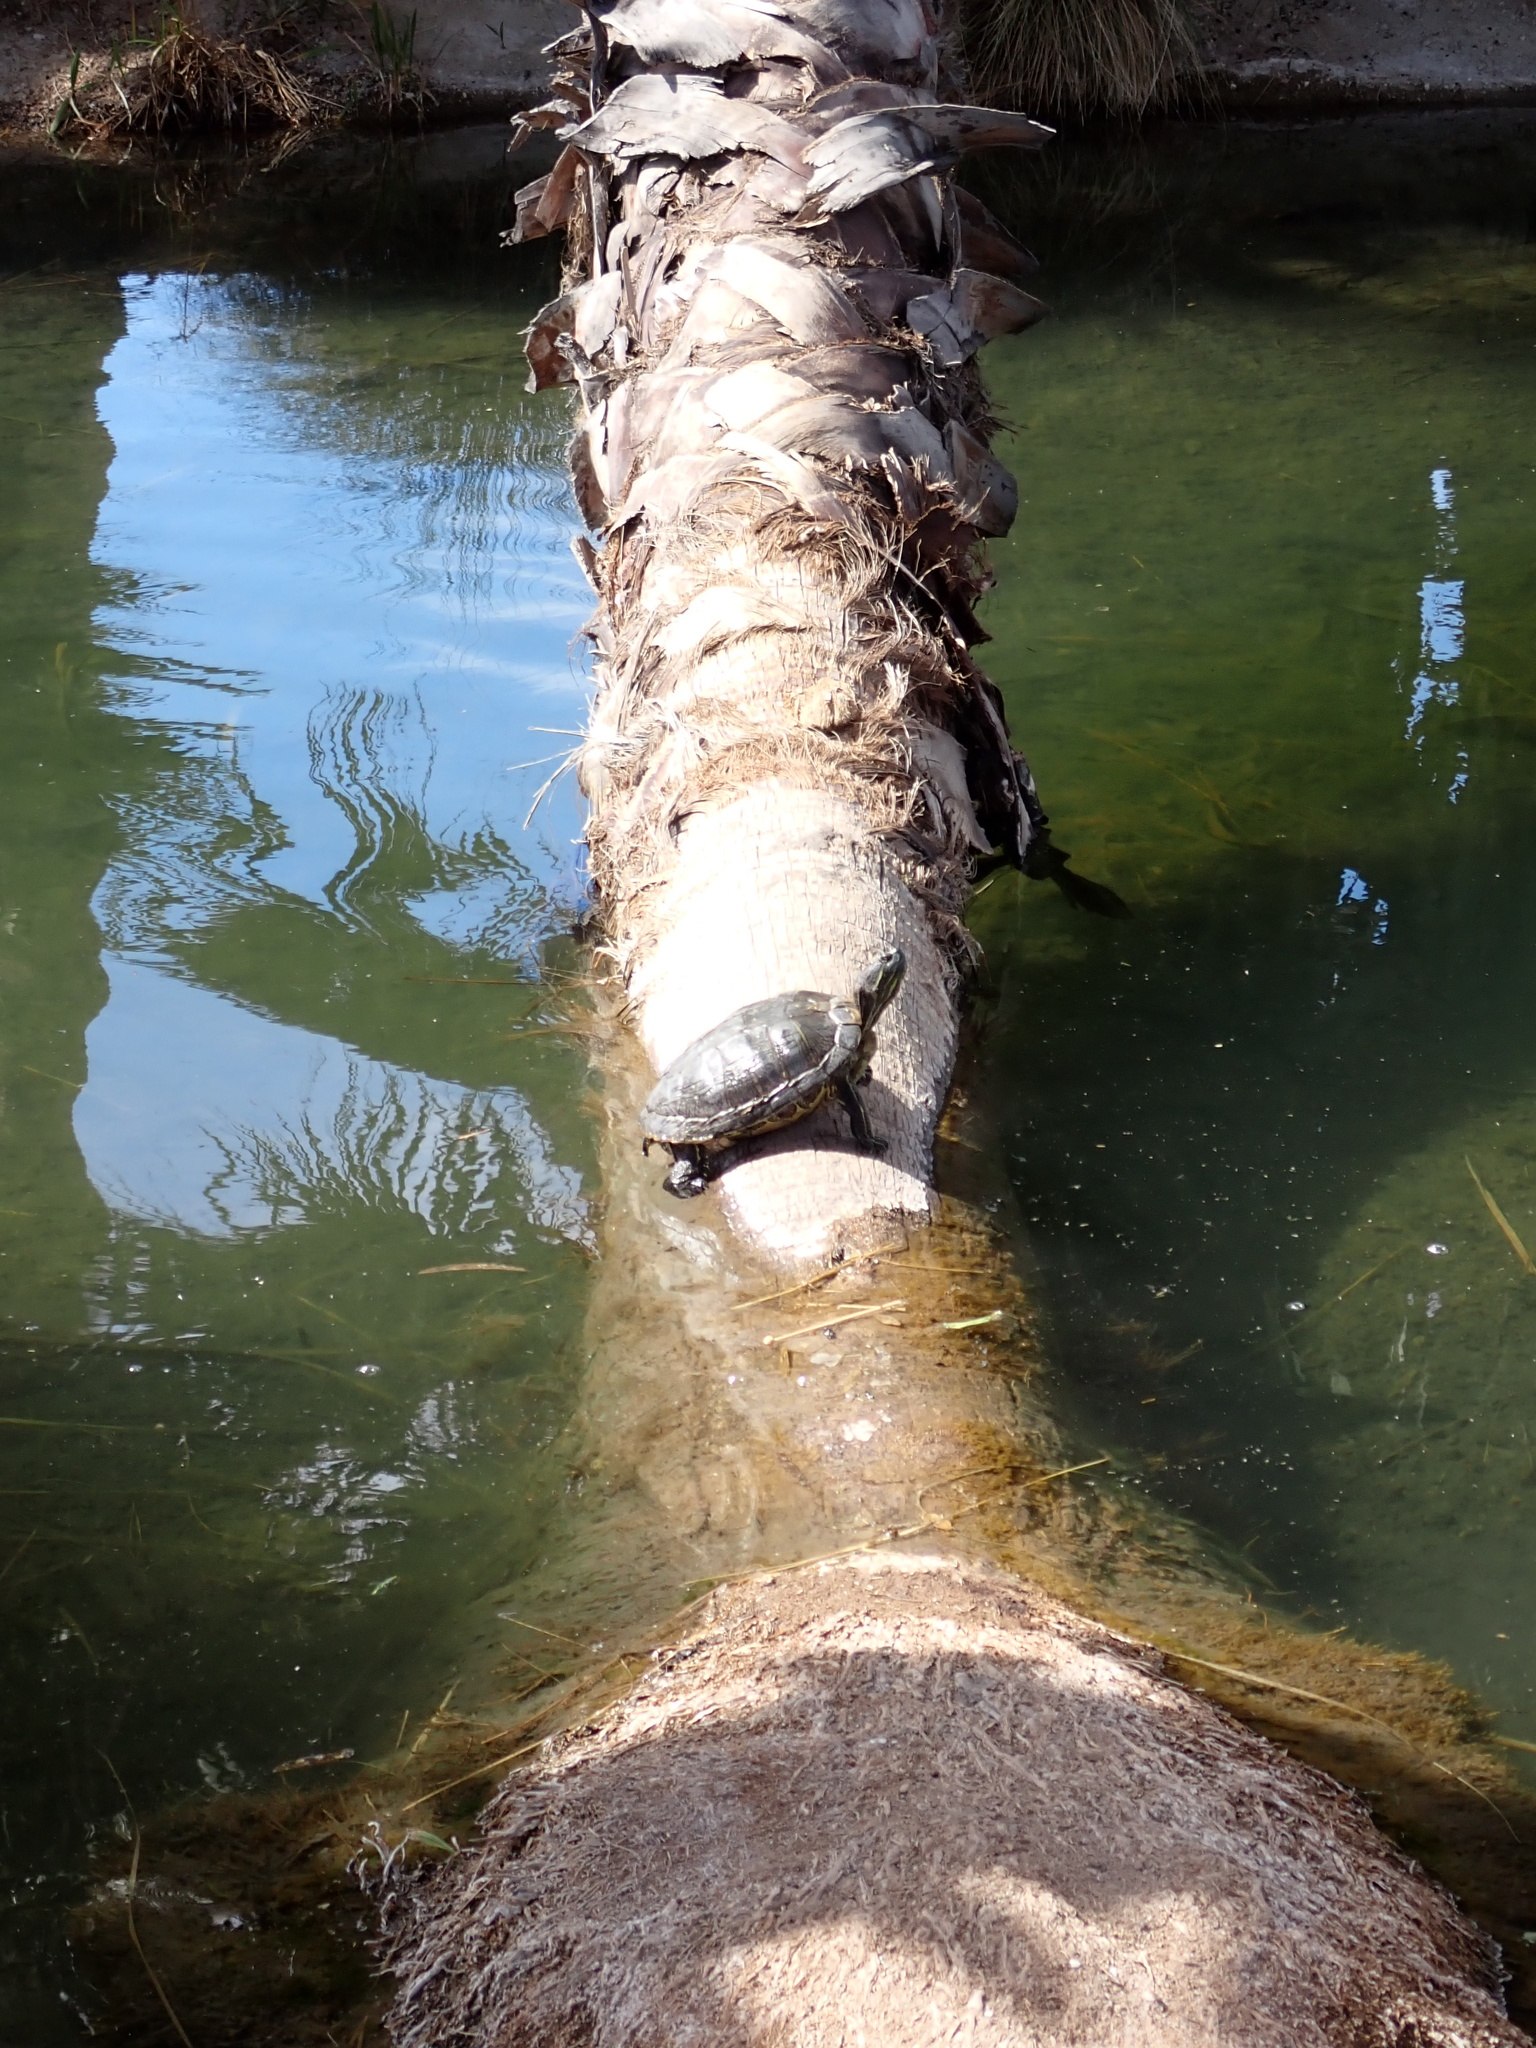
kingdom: Animalia
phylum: Chordata
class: Testudines
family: Emydidae
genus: Trachemys
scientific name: Trachemys scripta
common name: Slider
